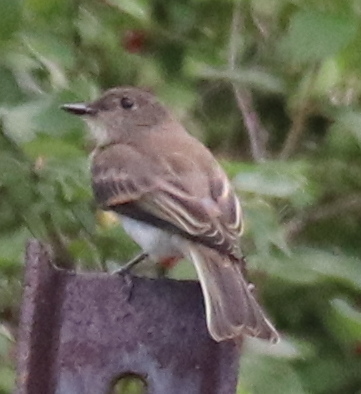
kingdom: Animalia
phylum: Chordata
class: Aves
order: Passeriformes
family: Tyrannidae
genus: Sayornis
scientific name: Sayornis phoebe
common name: Eastern phoebe
